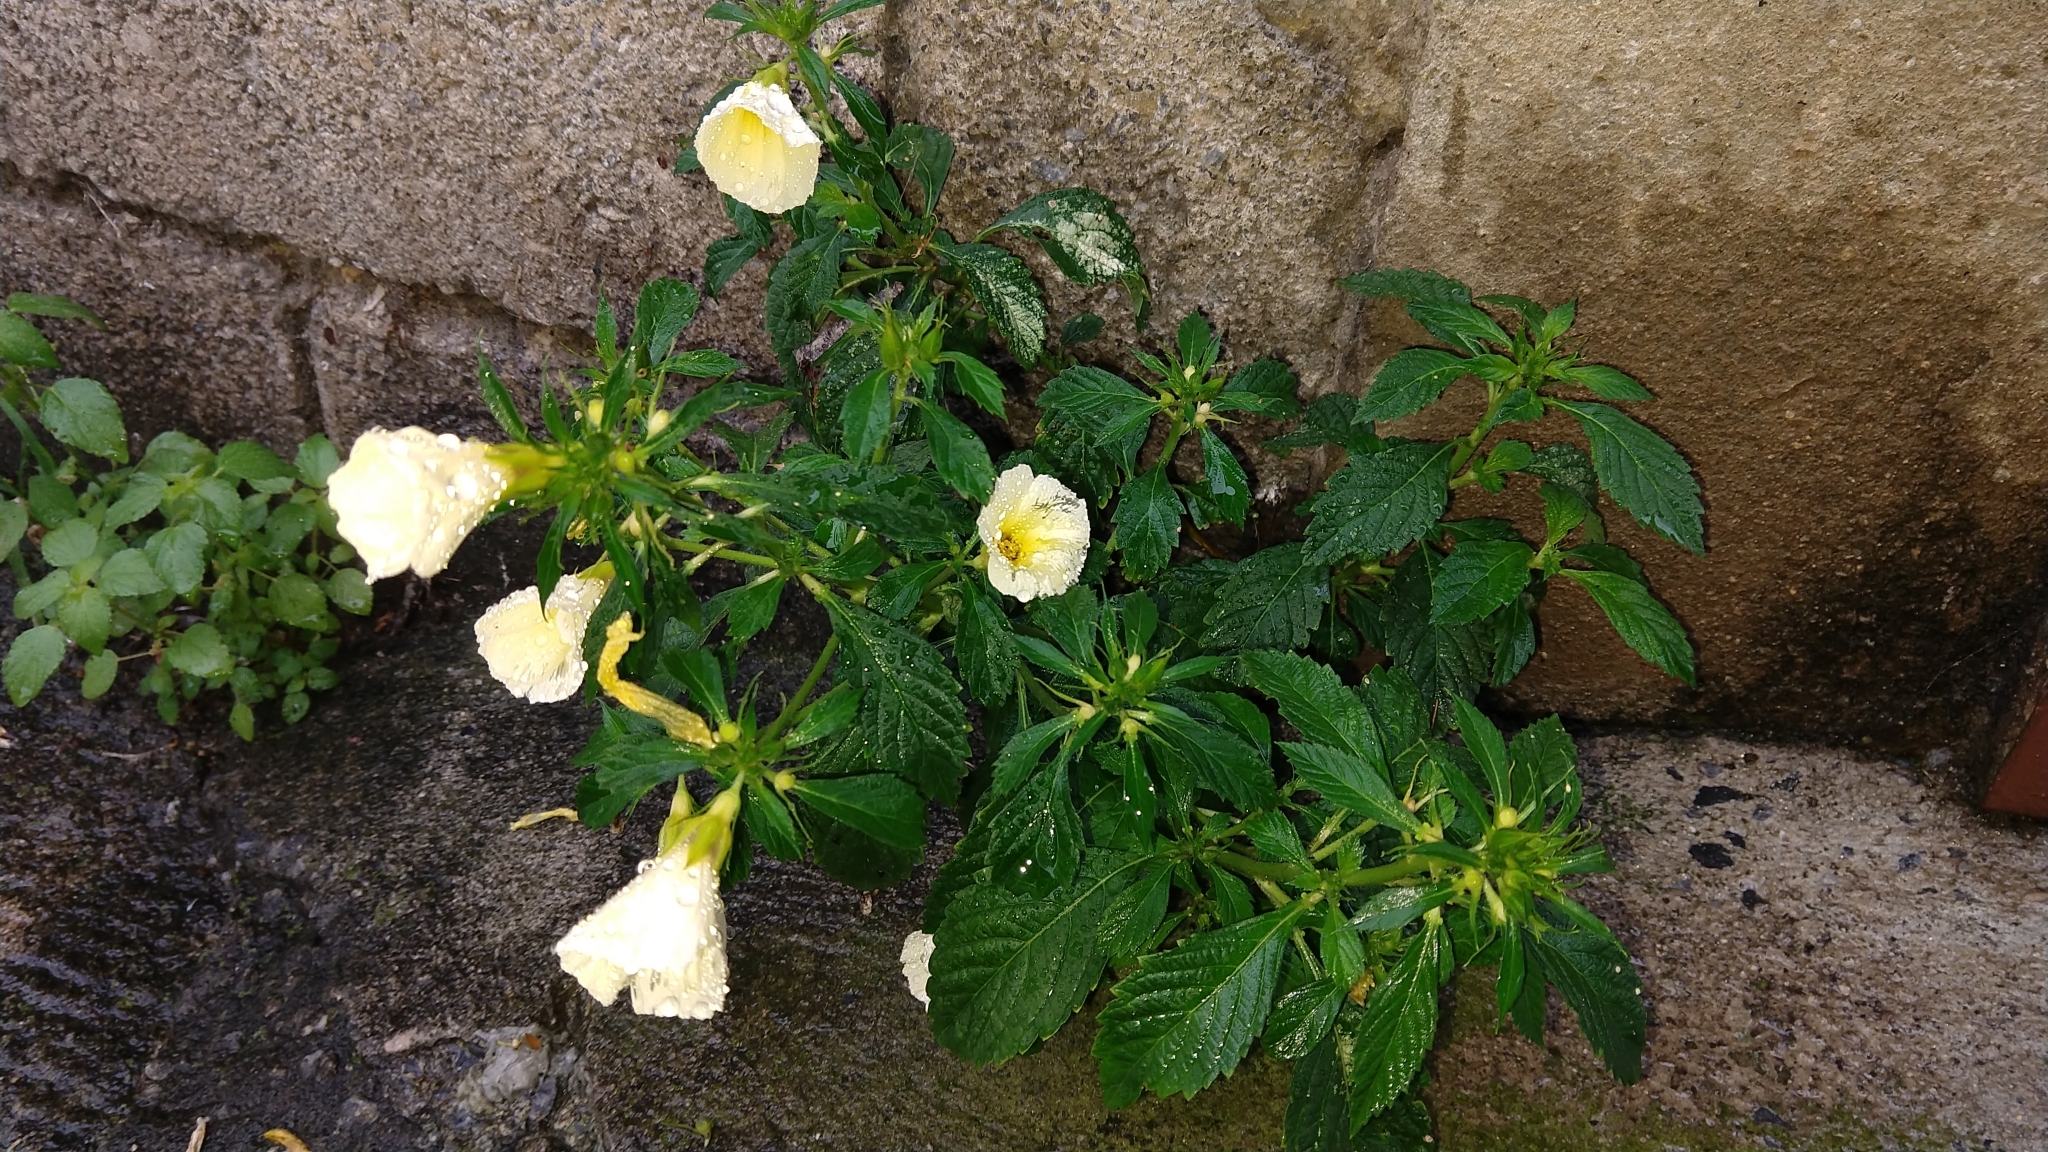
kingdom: Plantae
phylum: Tracheophyta
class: Magnoliopsida
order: Malpighiales
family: Turneraceae
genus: Turnera
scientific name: Turnera subulata
